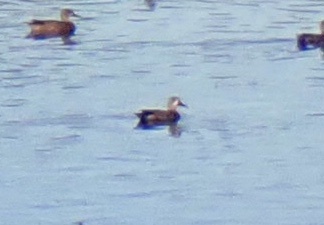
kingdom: Animalia
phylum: Chordata
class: Aves
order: Anseriformes
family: Anatidae
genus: Spatula
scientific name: Spatula discors
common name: Blue-winged teal
